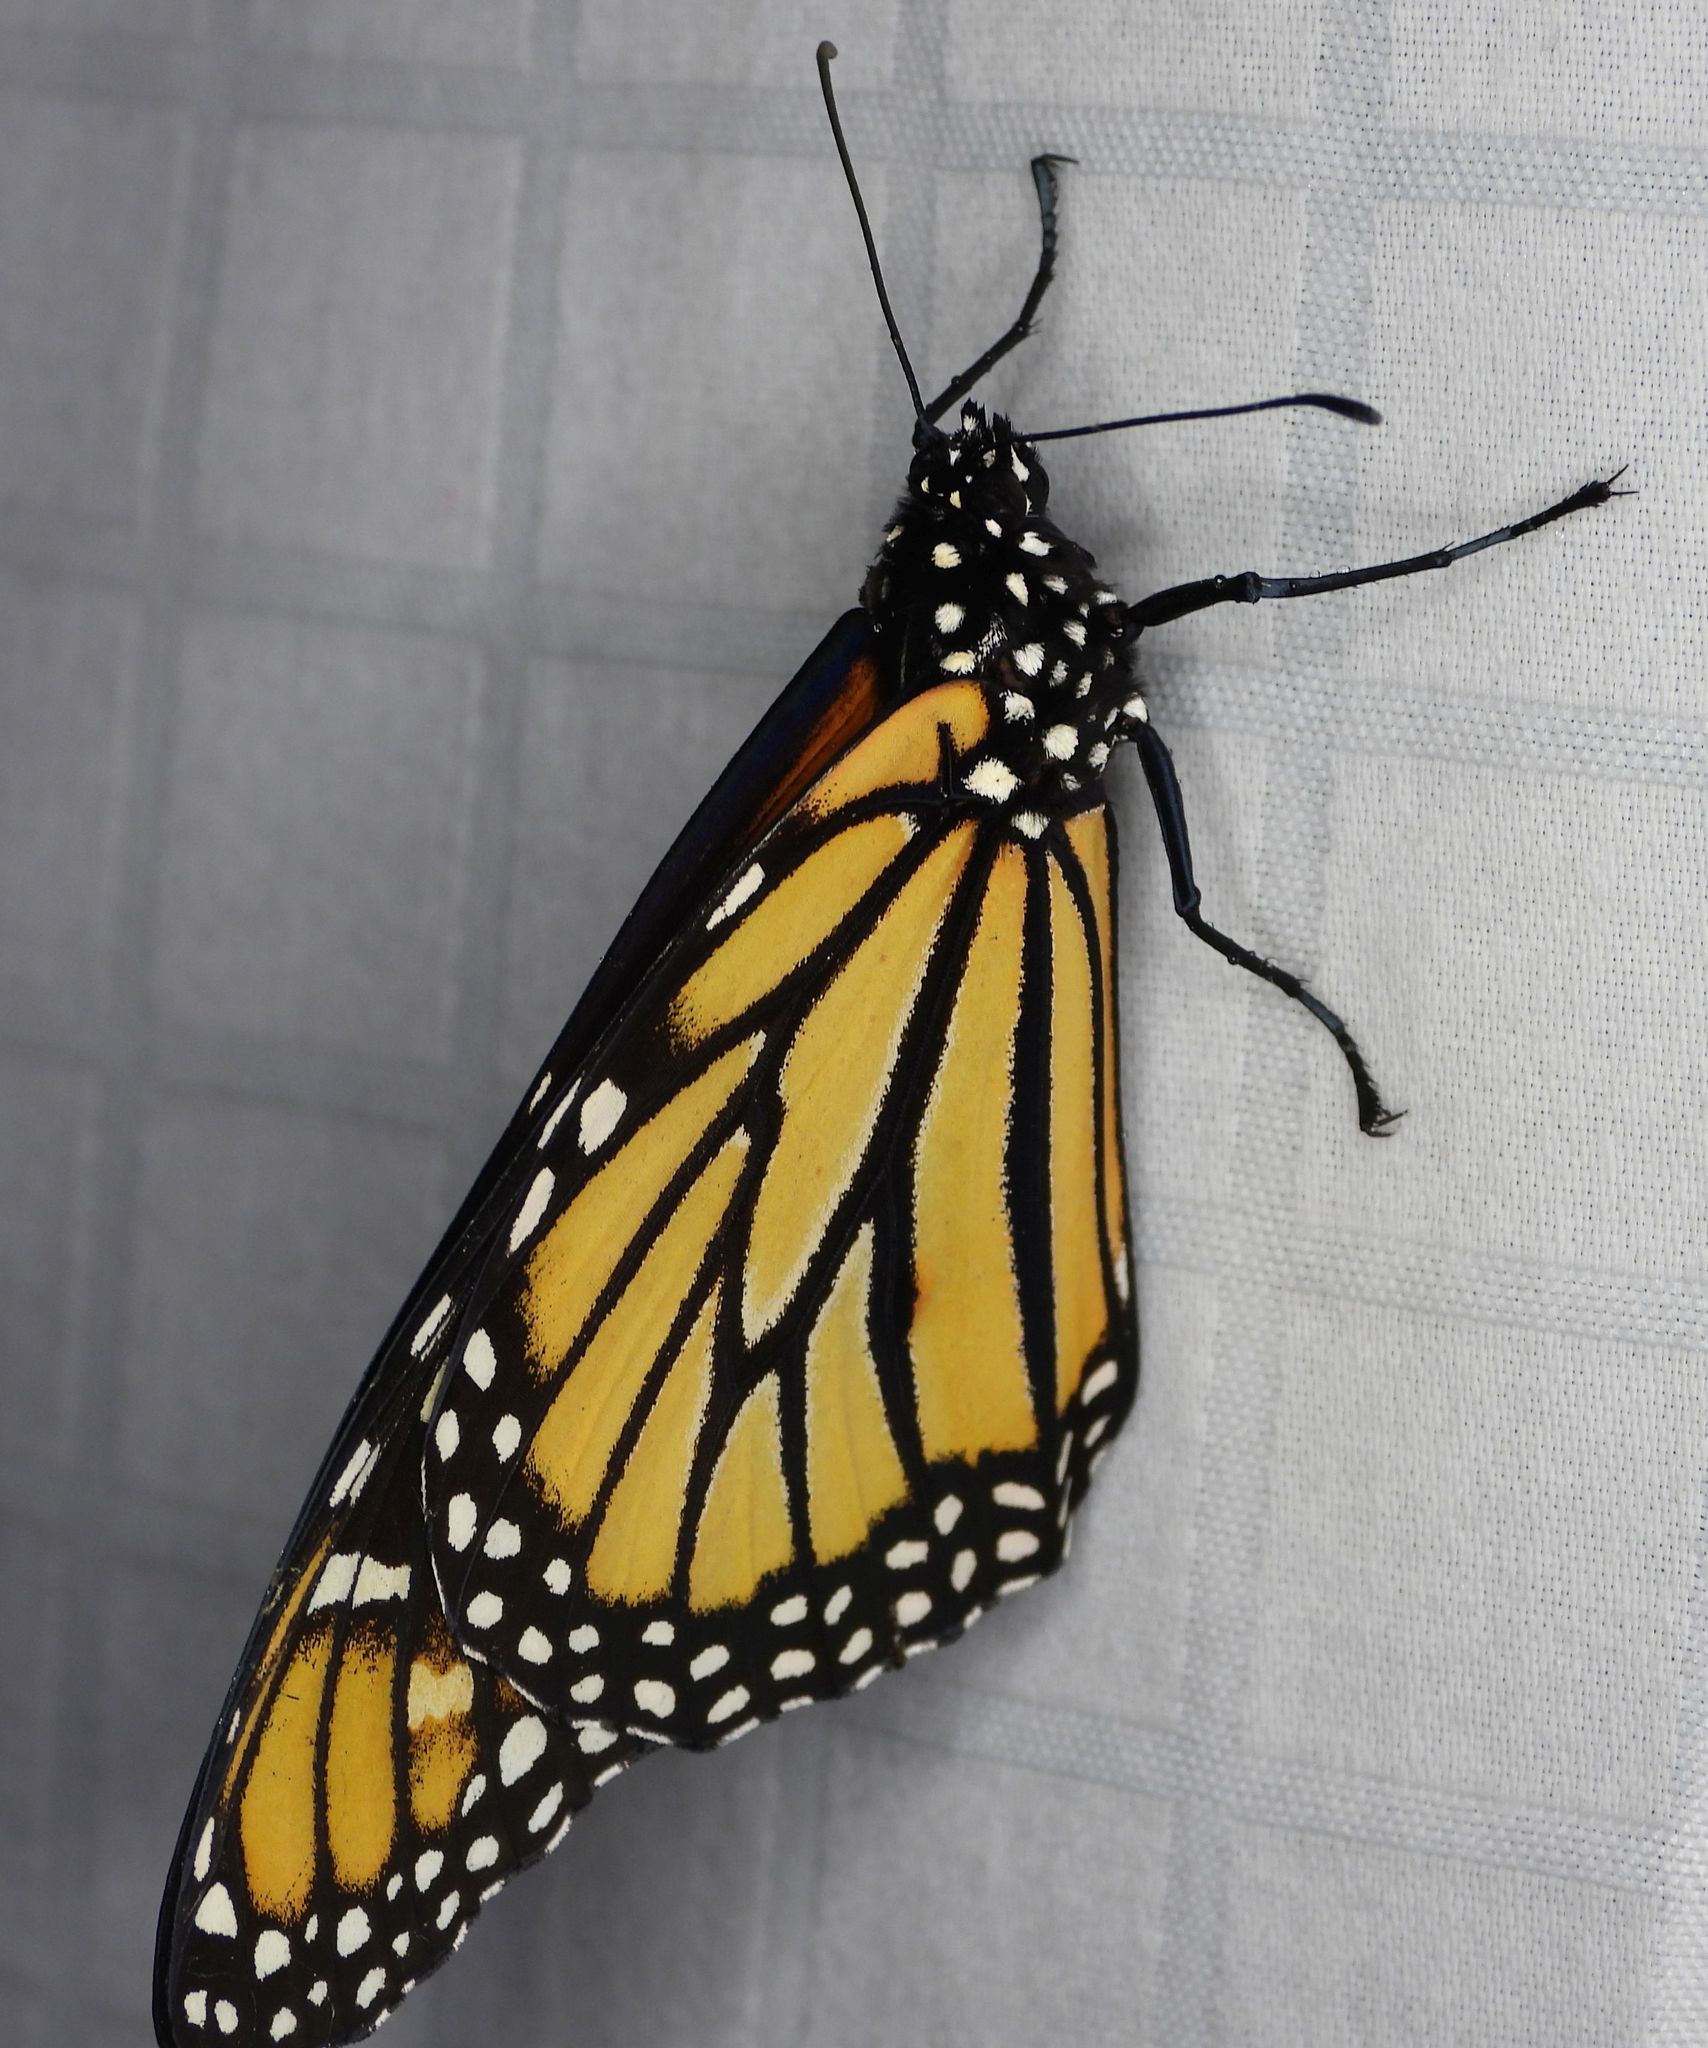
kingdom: Animalia
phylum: Arthropoda
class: Insecta
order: Lepidoptera
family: Nymphalidae
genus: Danaus
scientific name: Danaus plexippus
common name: Monarch
